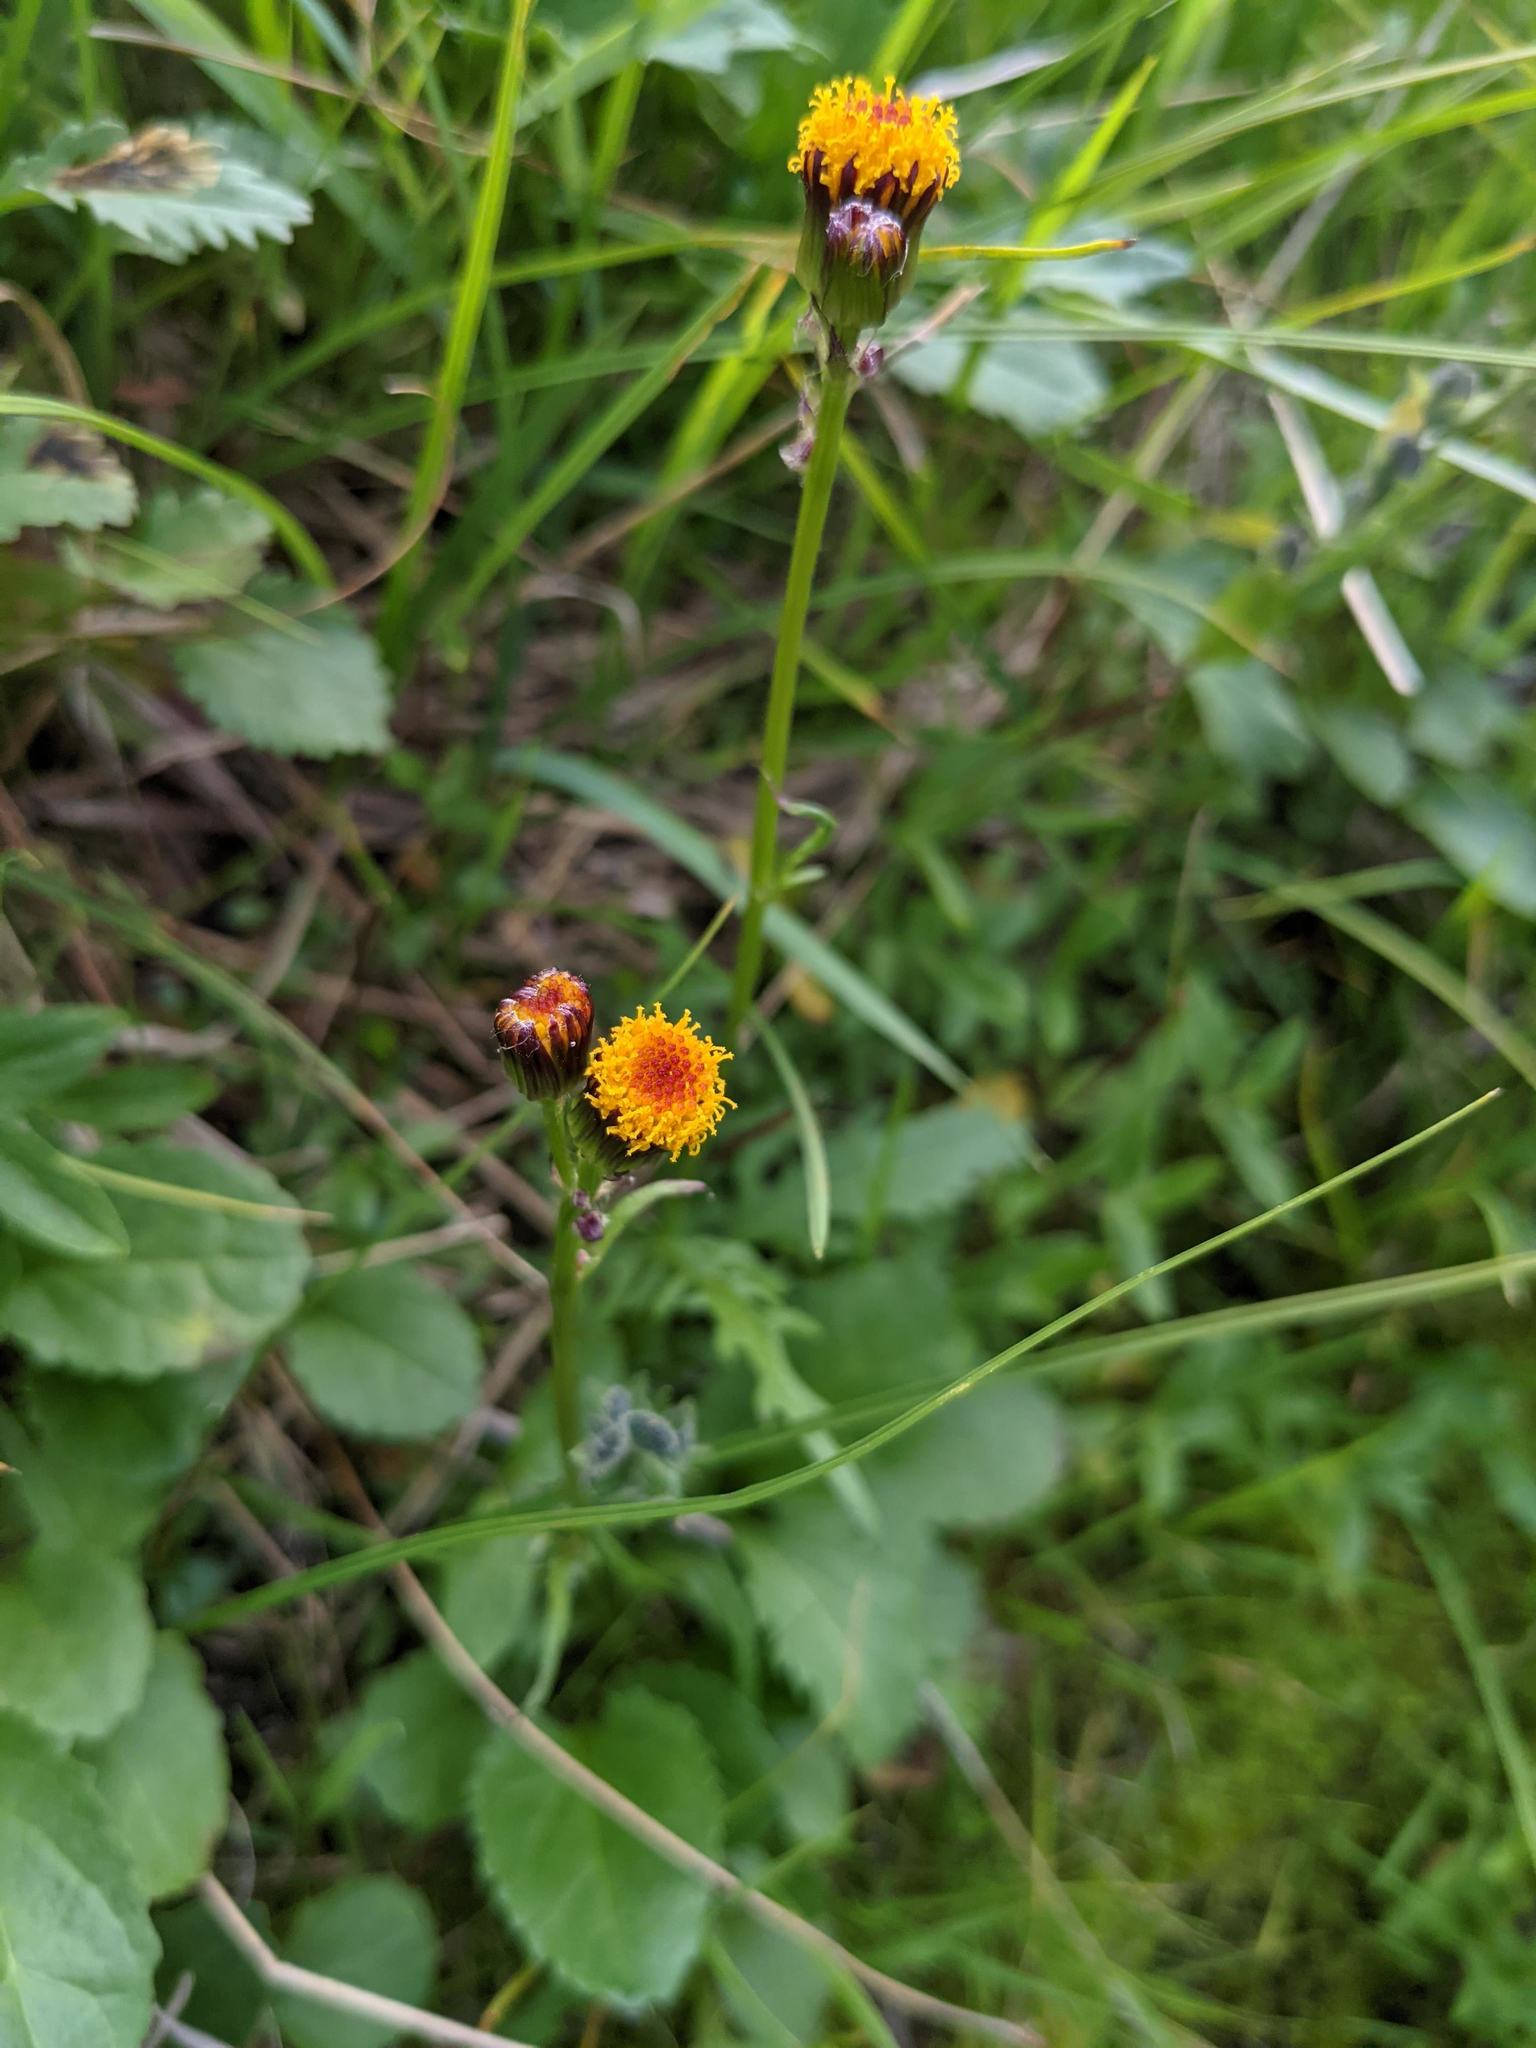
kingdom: Plantae
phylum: Tracheophyta
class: Magnoliopsida
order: Asterales
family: Asteraceae
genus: Packera
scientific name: Packera pauciflora
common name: Alpine groundsel
